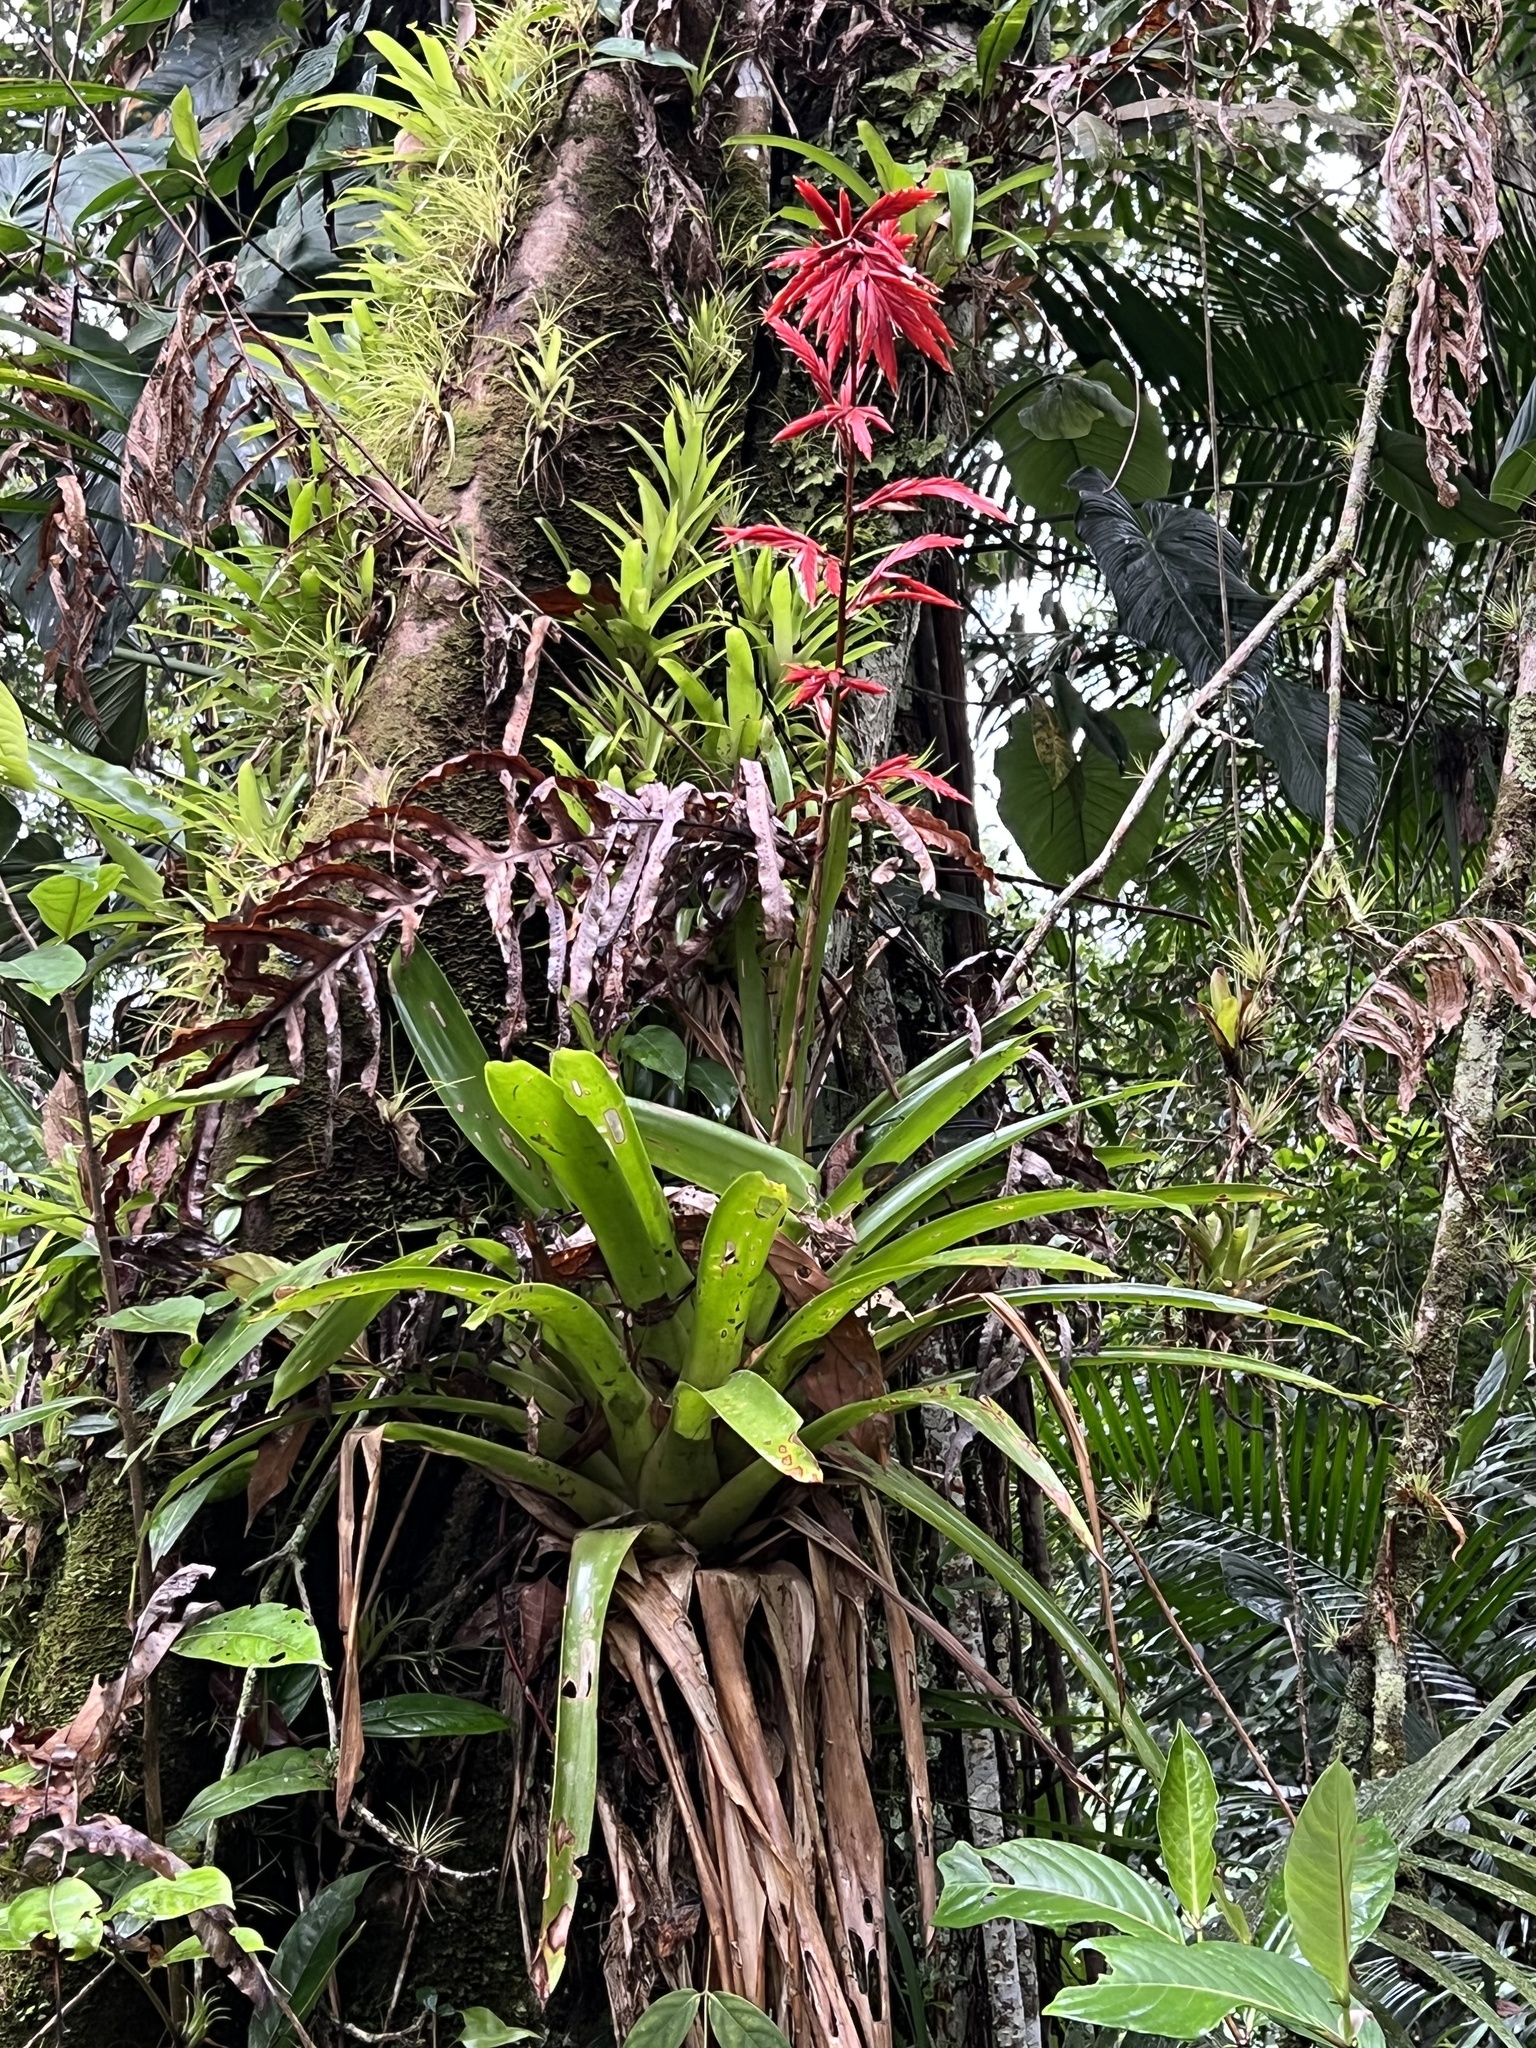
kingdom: Plantae
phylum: Tracheophyta
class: Liliopsida
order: Poales
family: Bromeliaceae
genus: Vriesea
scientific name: Vriesea elata
